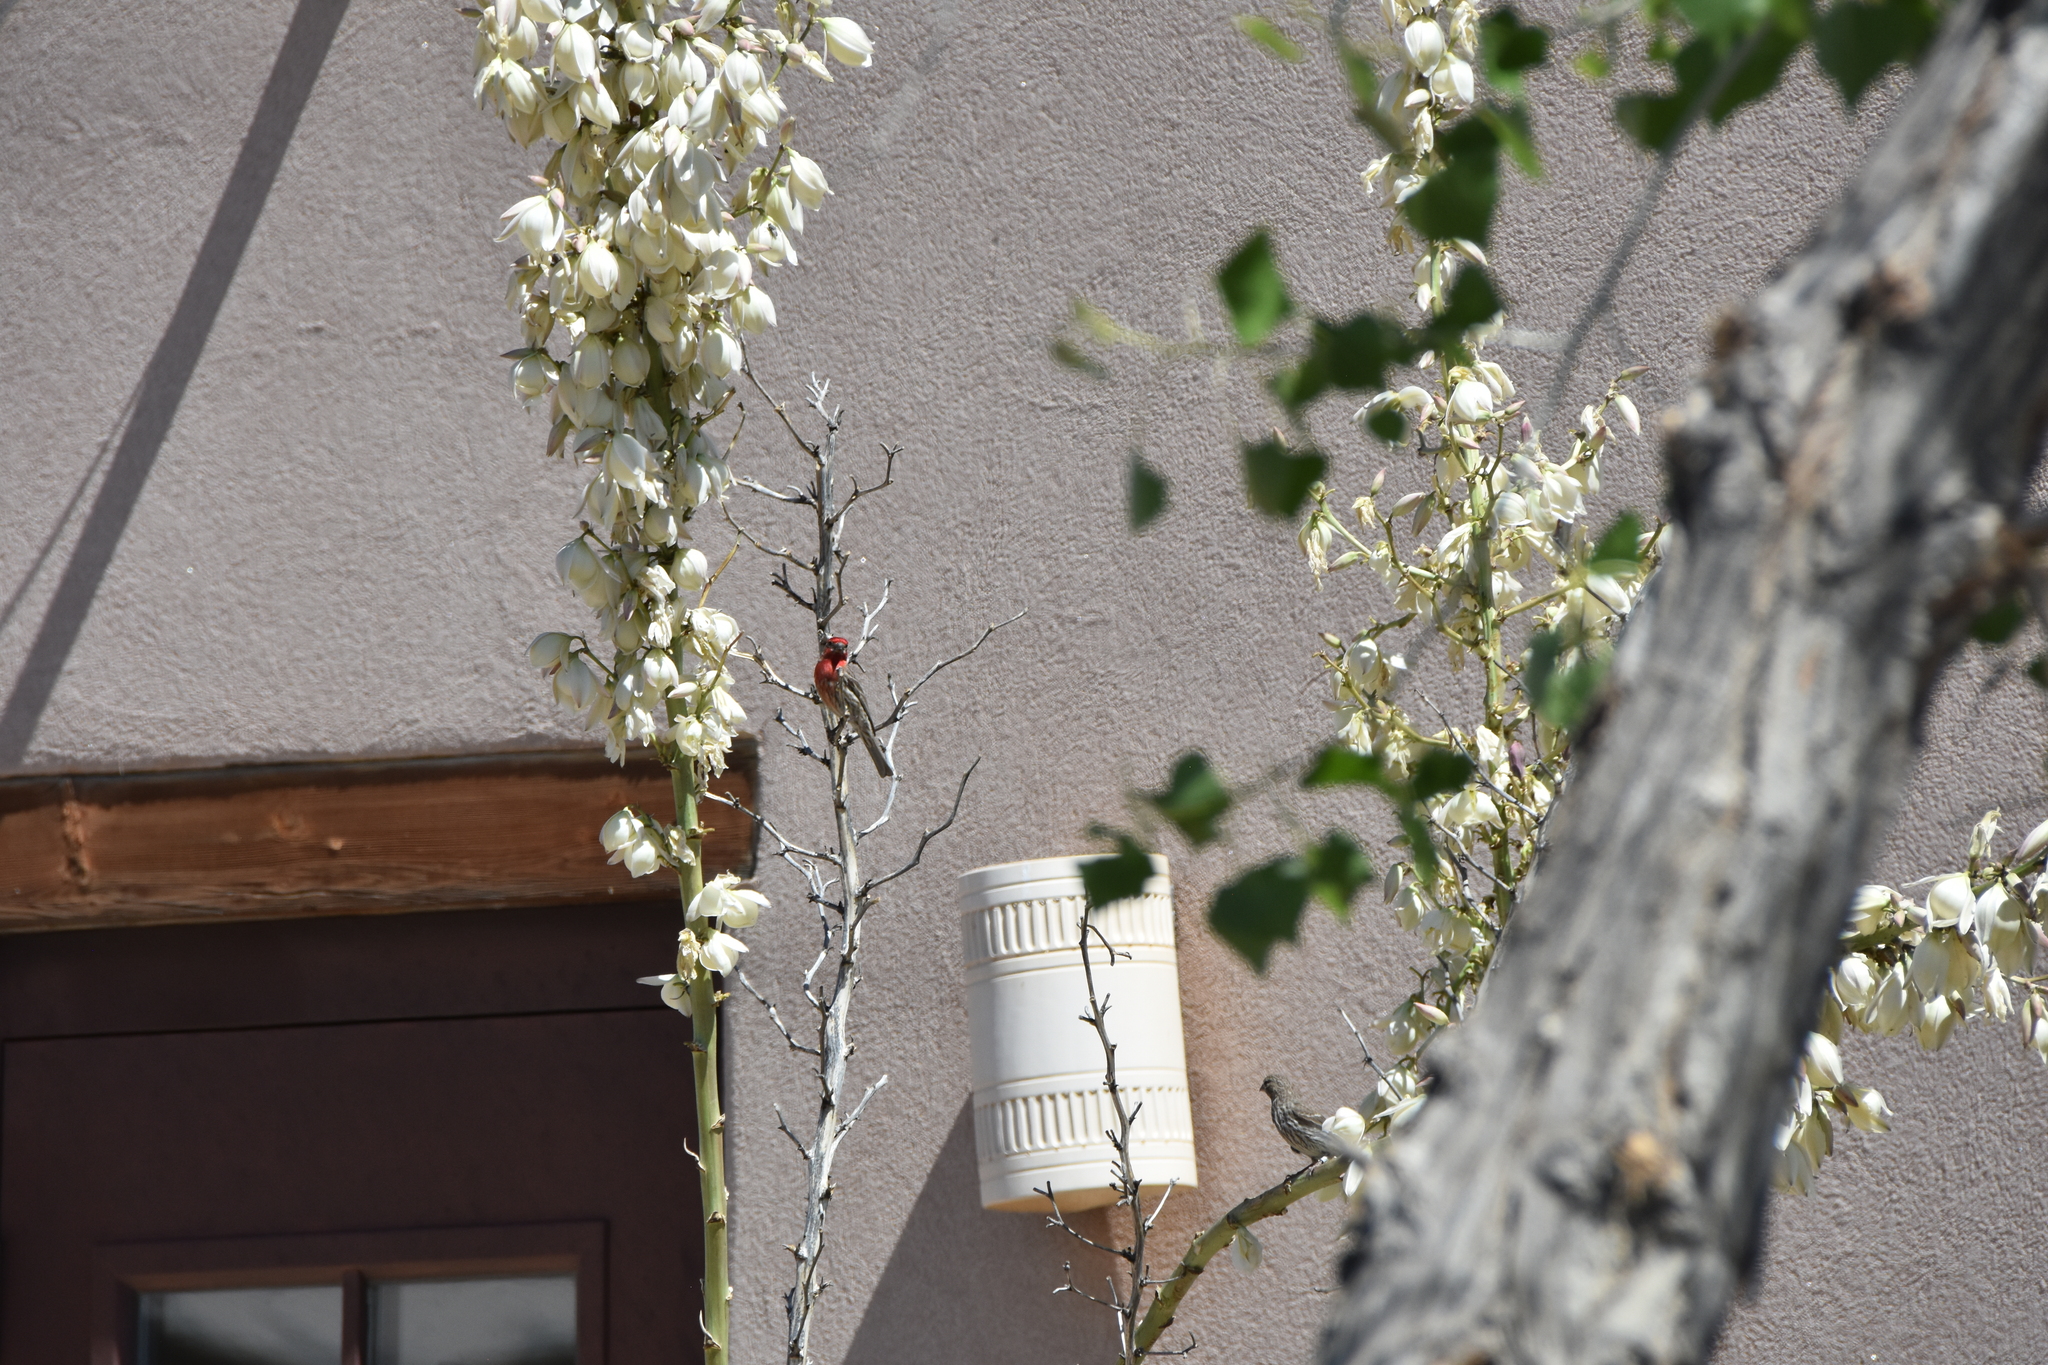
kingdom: Animalia
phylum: Chordata
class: Aves
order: Passeriformes
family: Fringillidae
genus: Haemorhous
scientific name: Haemorhous mexicanus
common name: House finch
